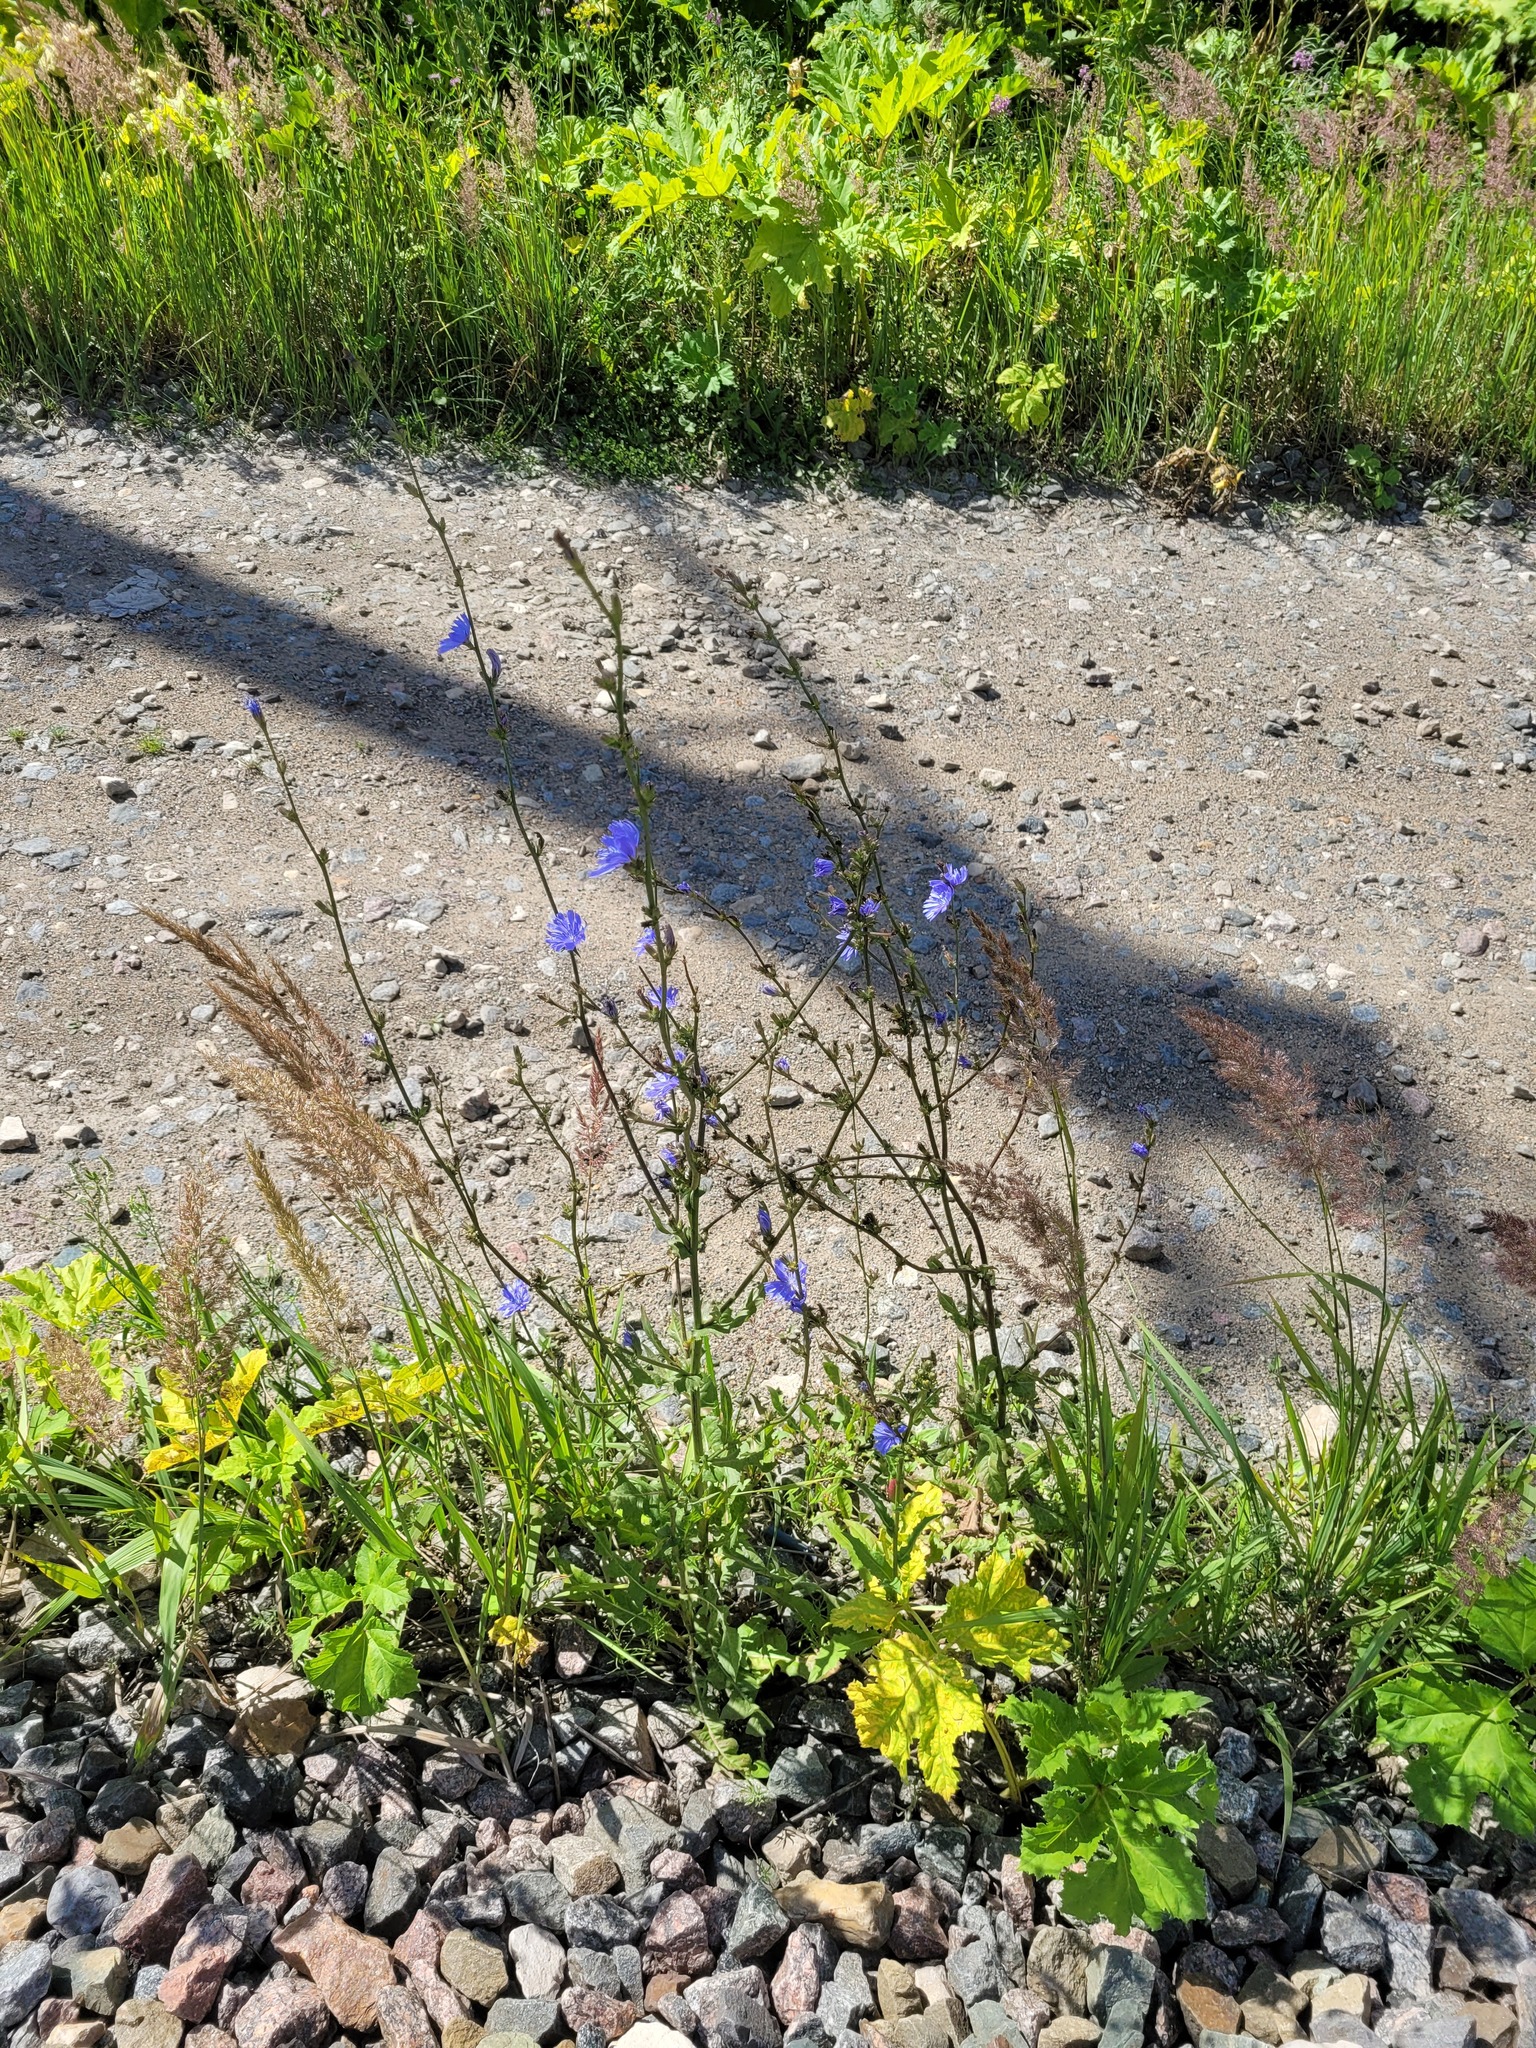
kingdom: Plantae
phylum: Tracheophyta
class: Magnoliopsida
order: Asterales
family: Asteraceae
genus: Cichorium
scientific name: Cichorium intybus
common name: Chicory
